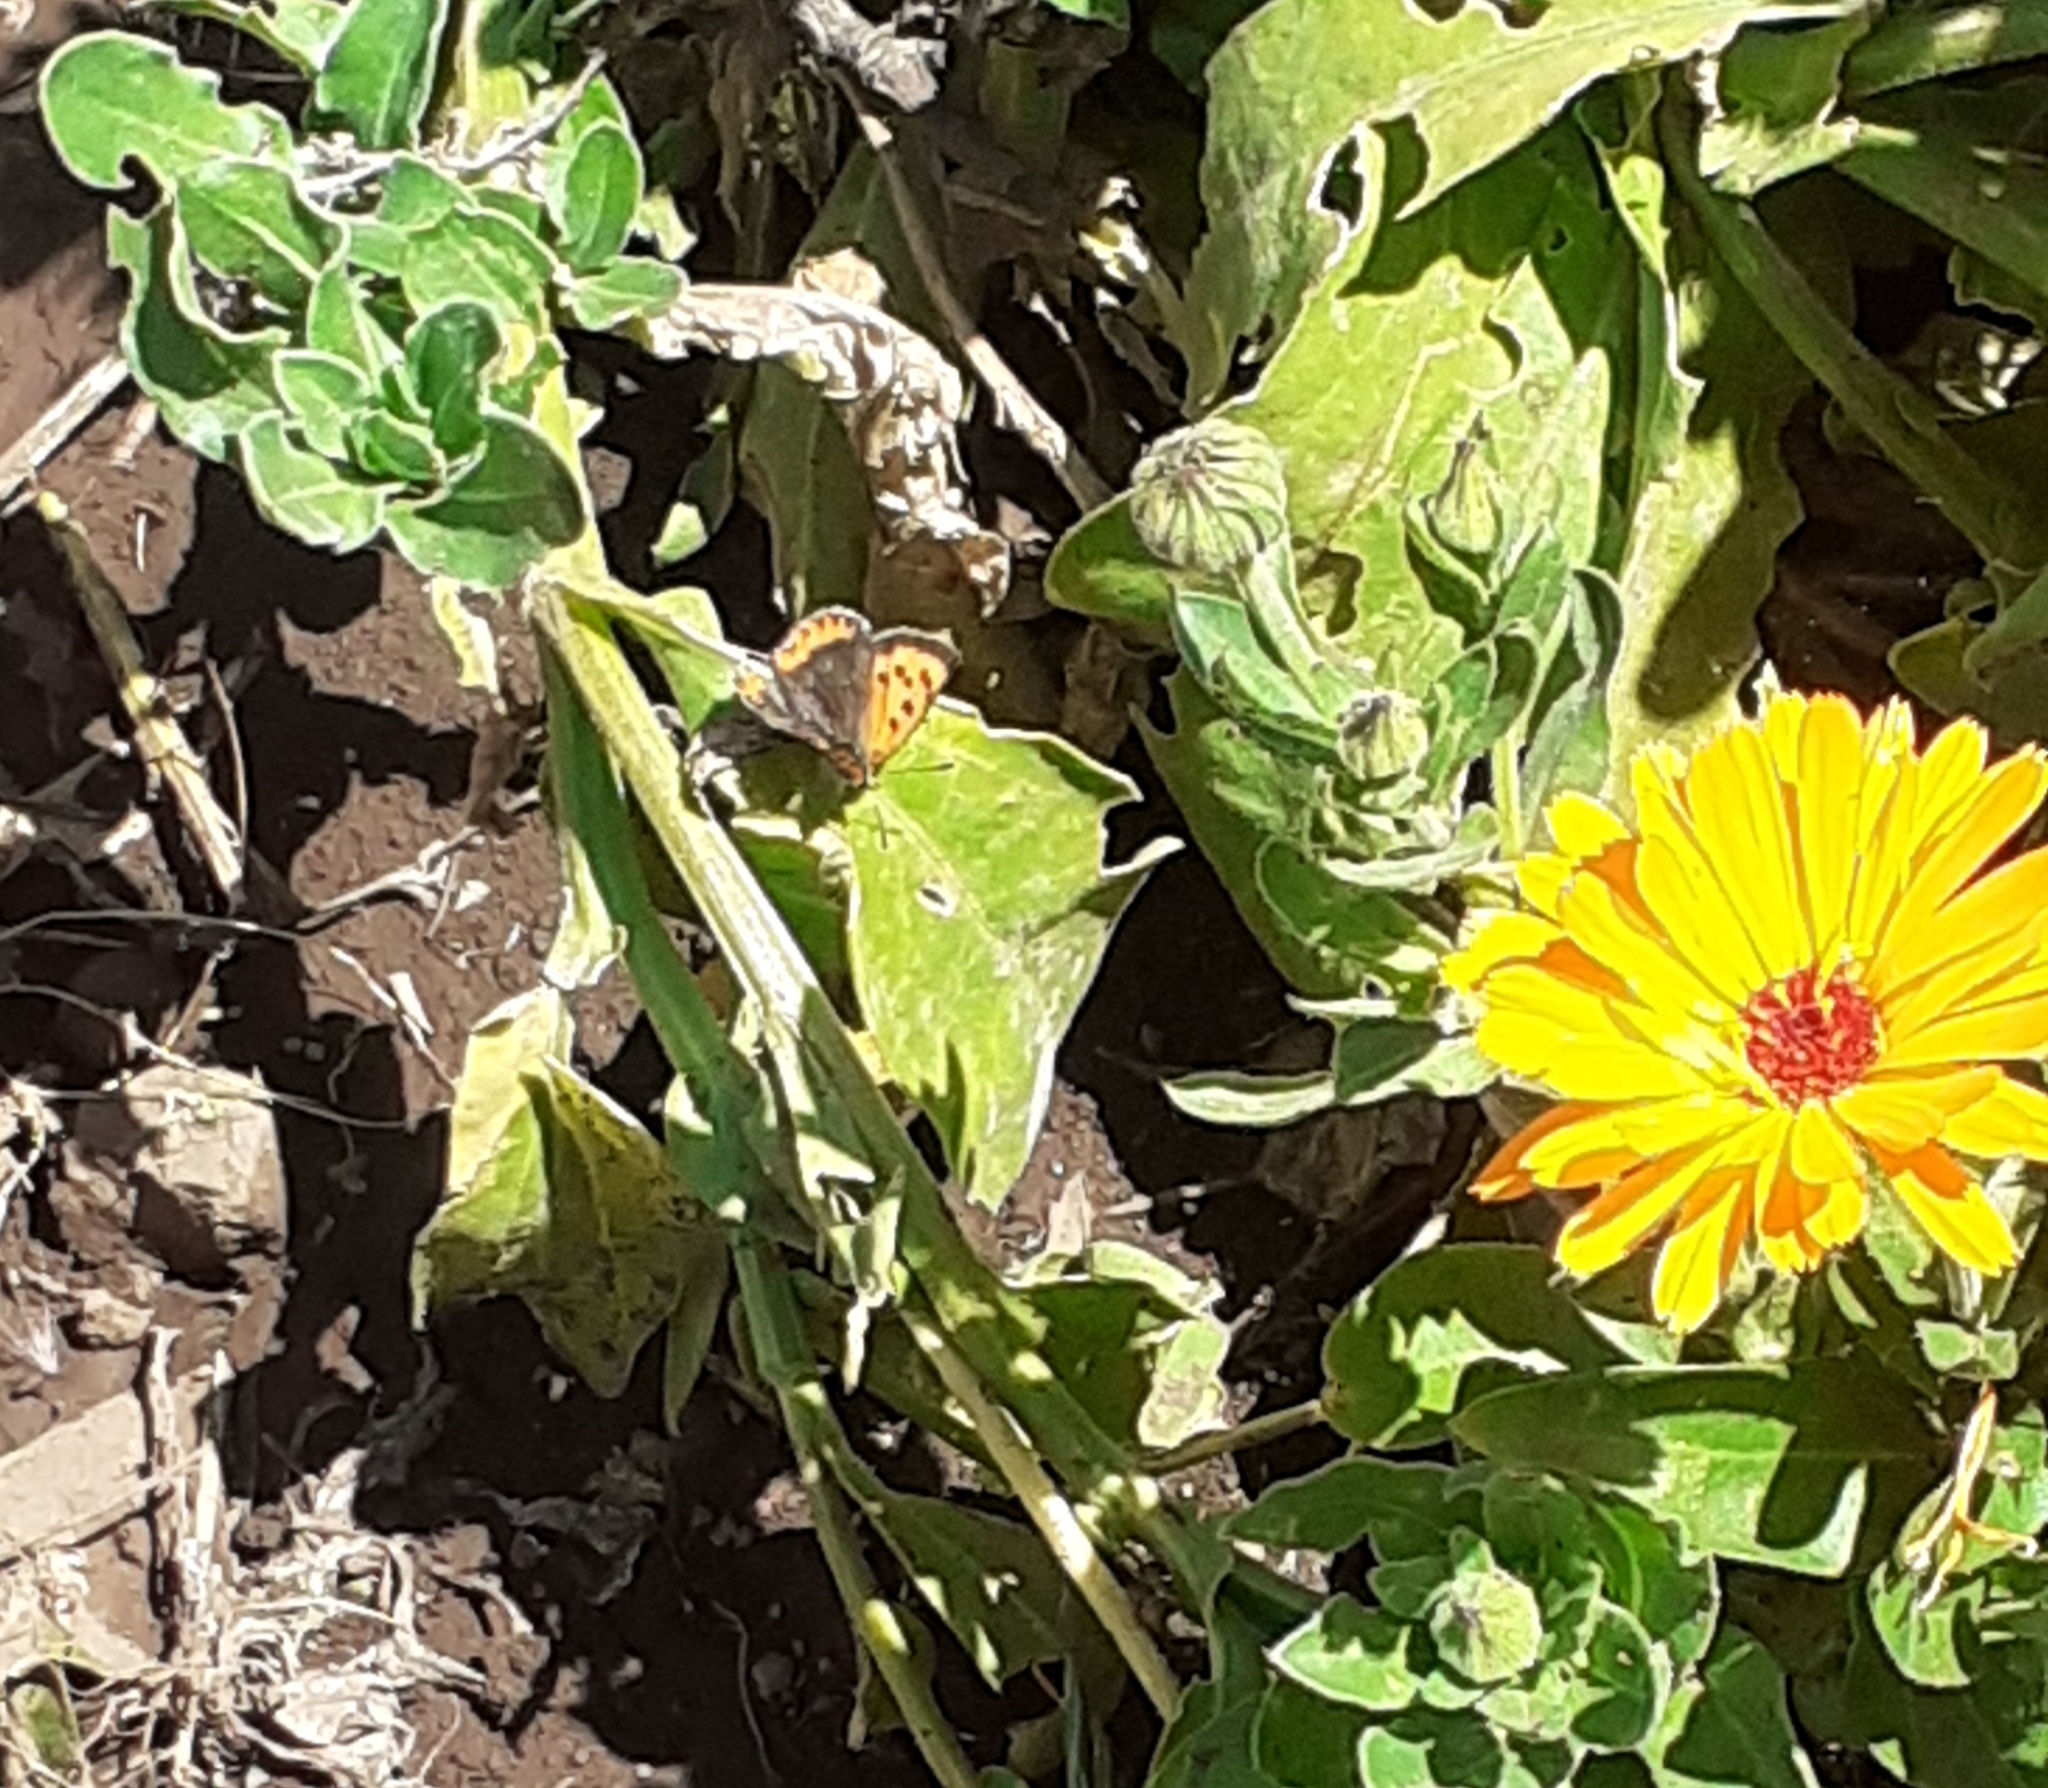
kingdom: Animalia
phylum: Arthropoda
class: Insecta
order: Lepidoptera
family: Lycaenidae
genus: Lycaena
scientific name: Lycaena phlaeas
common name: Small copper
